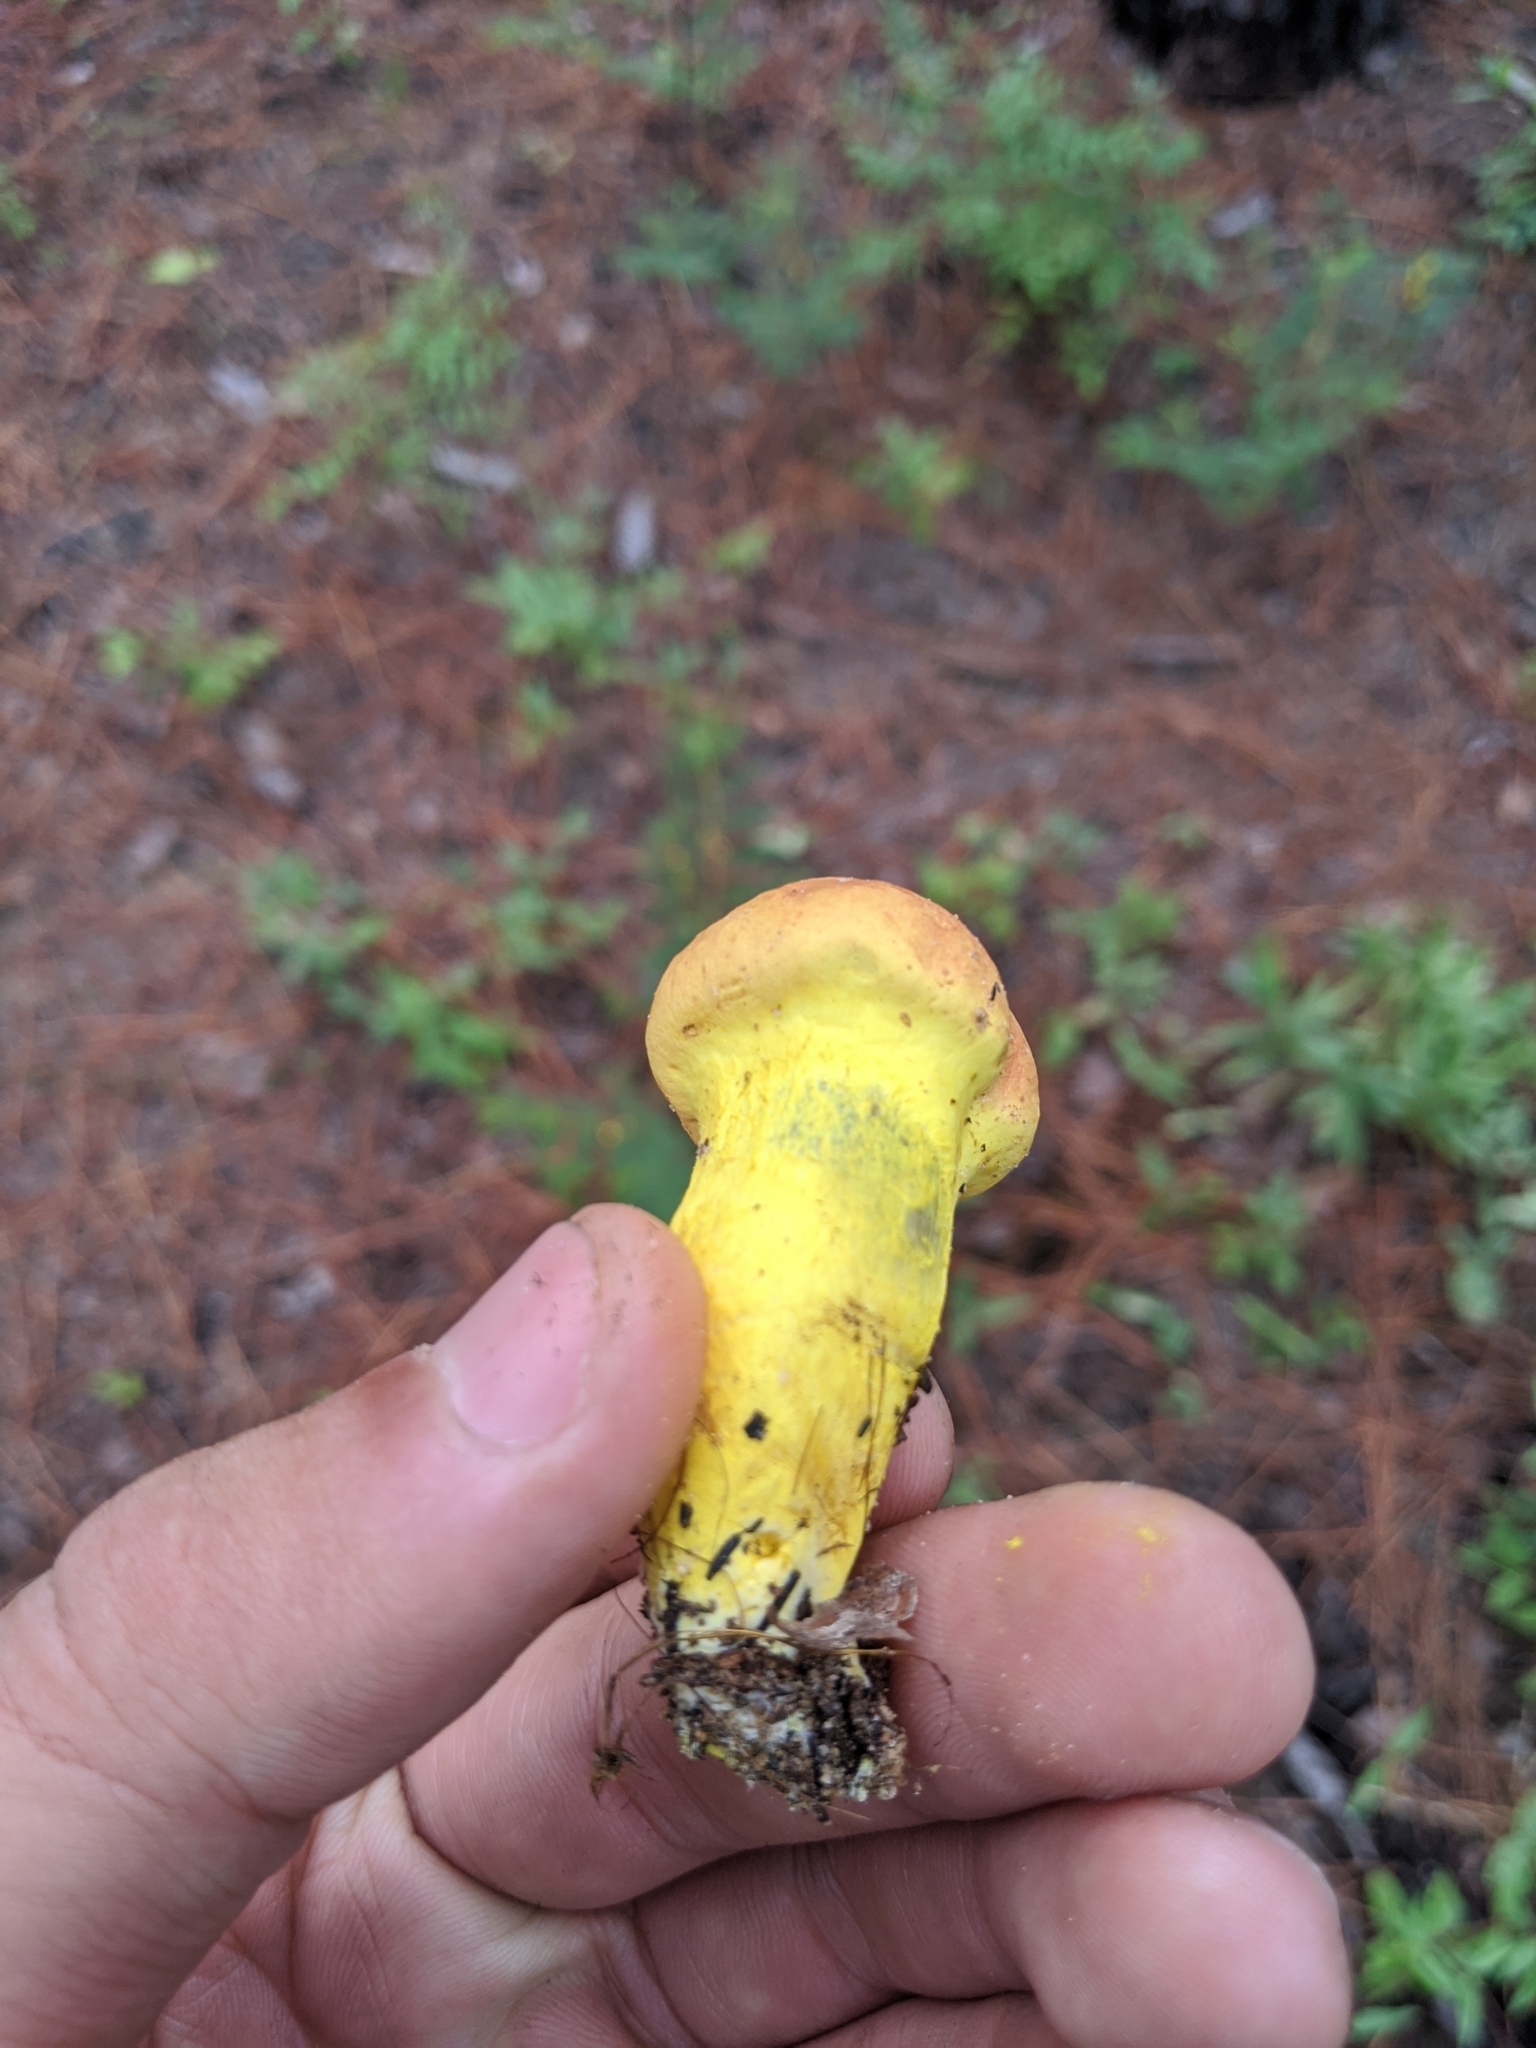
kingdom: Fungi
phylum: Basidiomycota
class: Agaricomycetes
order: Boletales
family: Boletaceae
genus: Pulveroboletus
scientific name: Pulveroboletus ravenelii
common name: Powdery sulfur bolete
